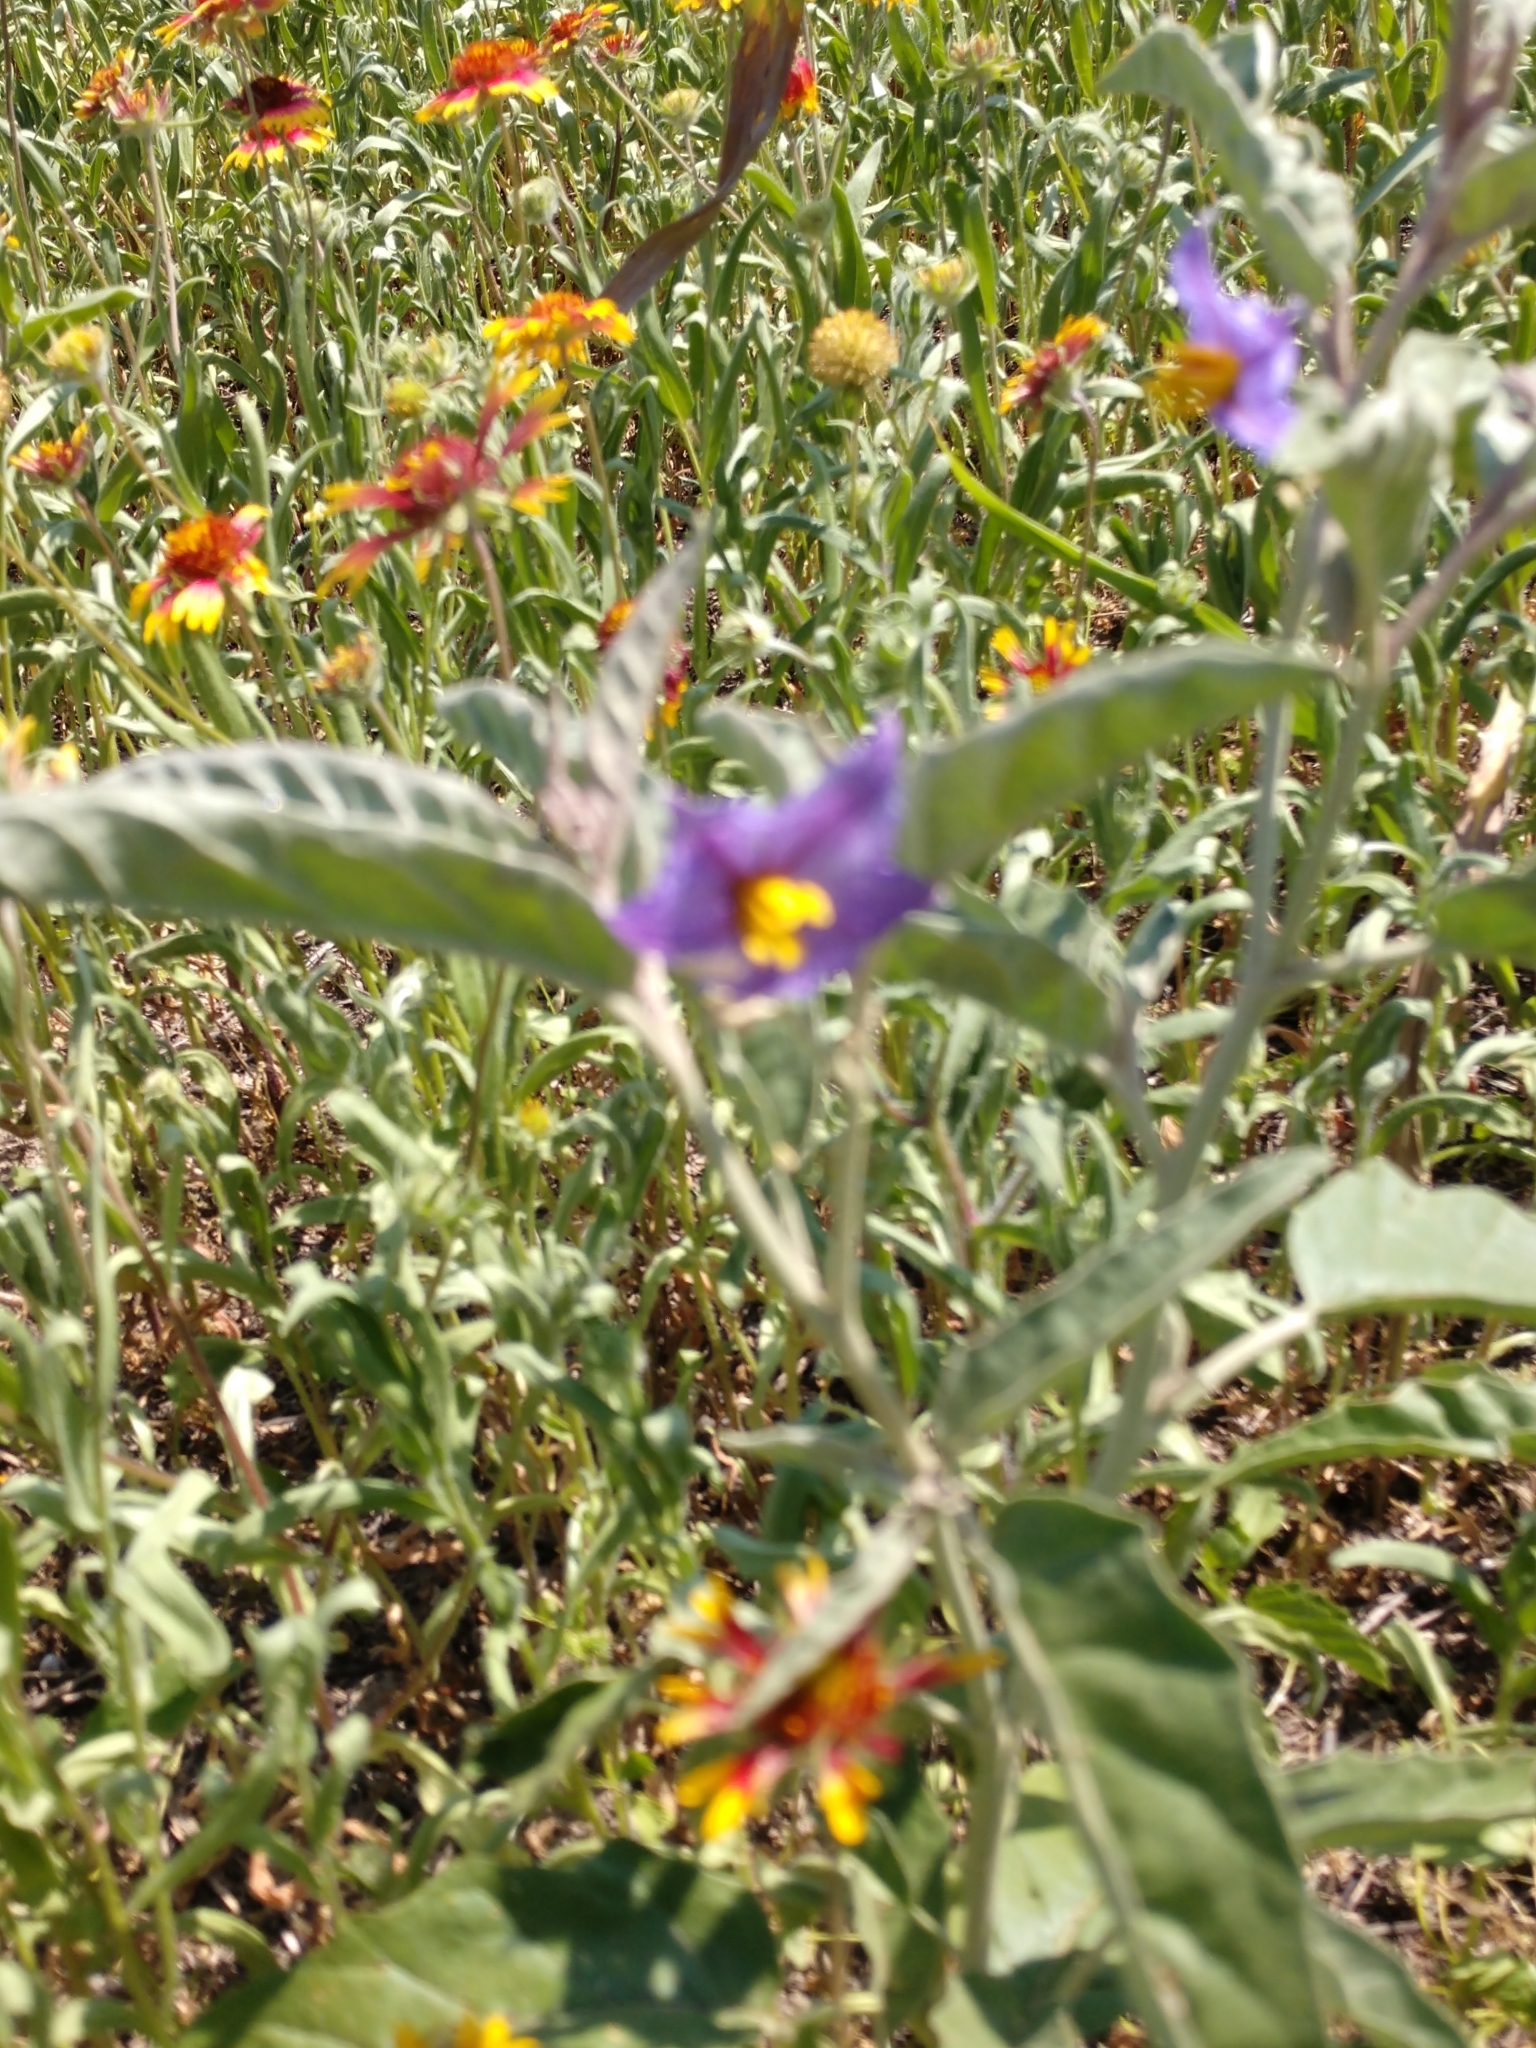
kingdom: Plantae
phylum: Tracheophyta
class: Magnoliopsida
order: Solanales
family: Solanaceae
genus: Solanum
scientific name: Solanum elaeagnifolium
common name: Silverleaf nightshade
